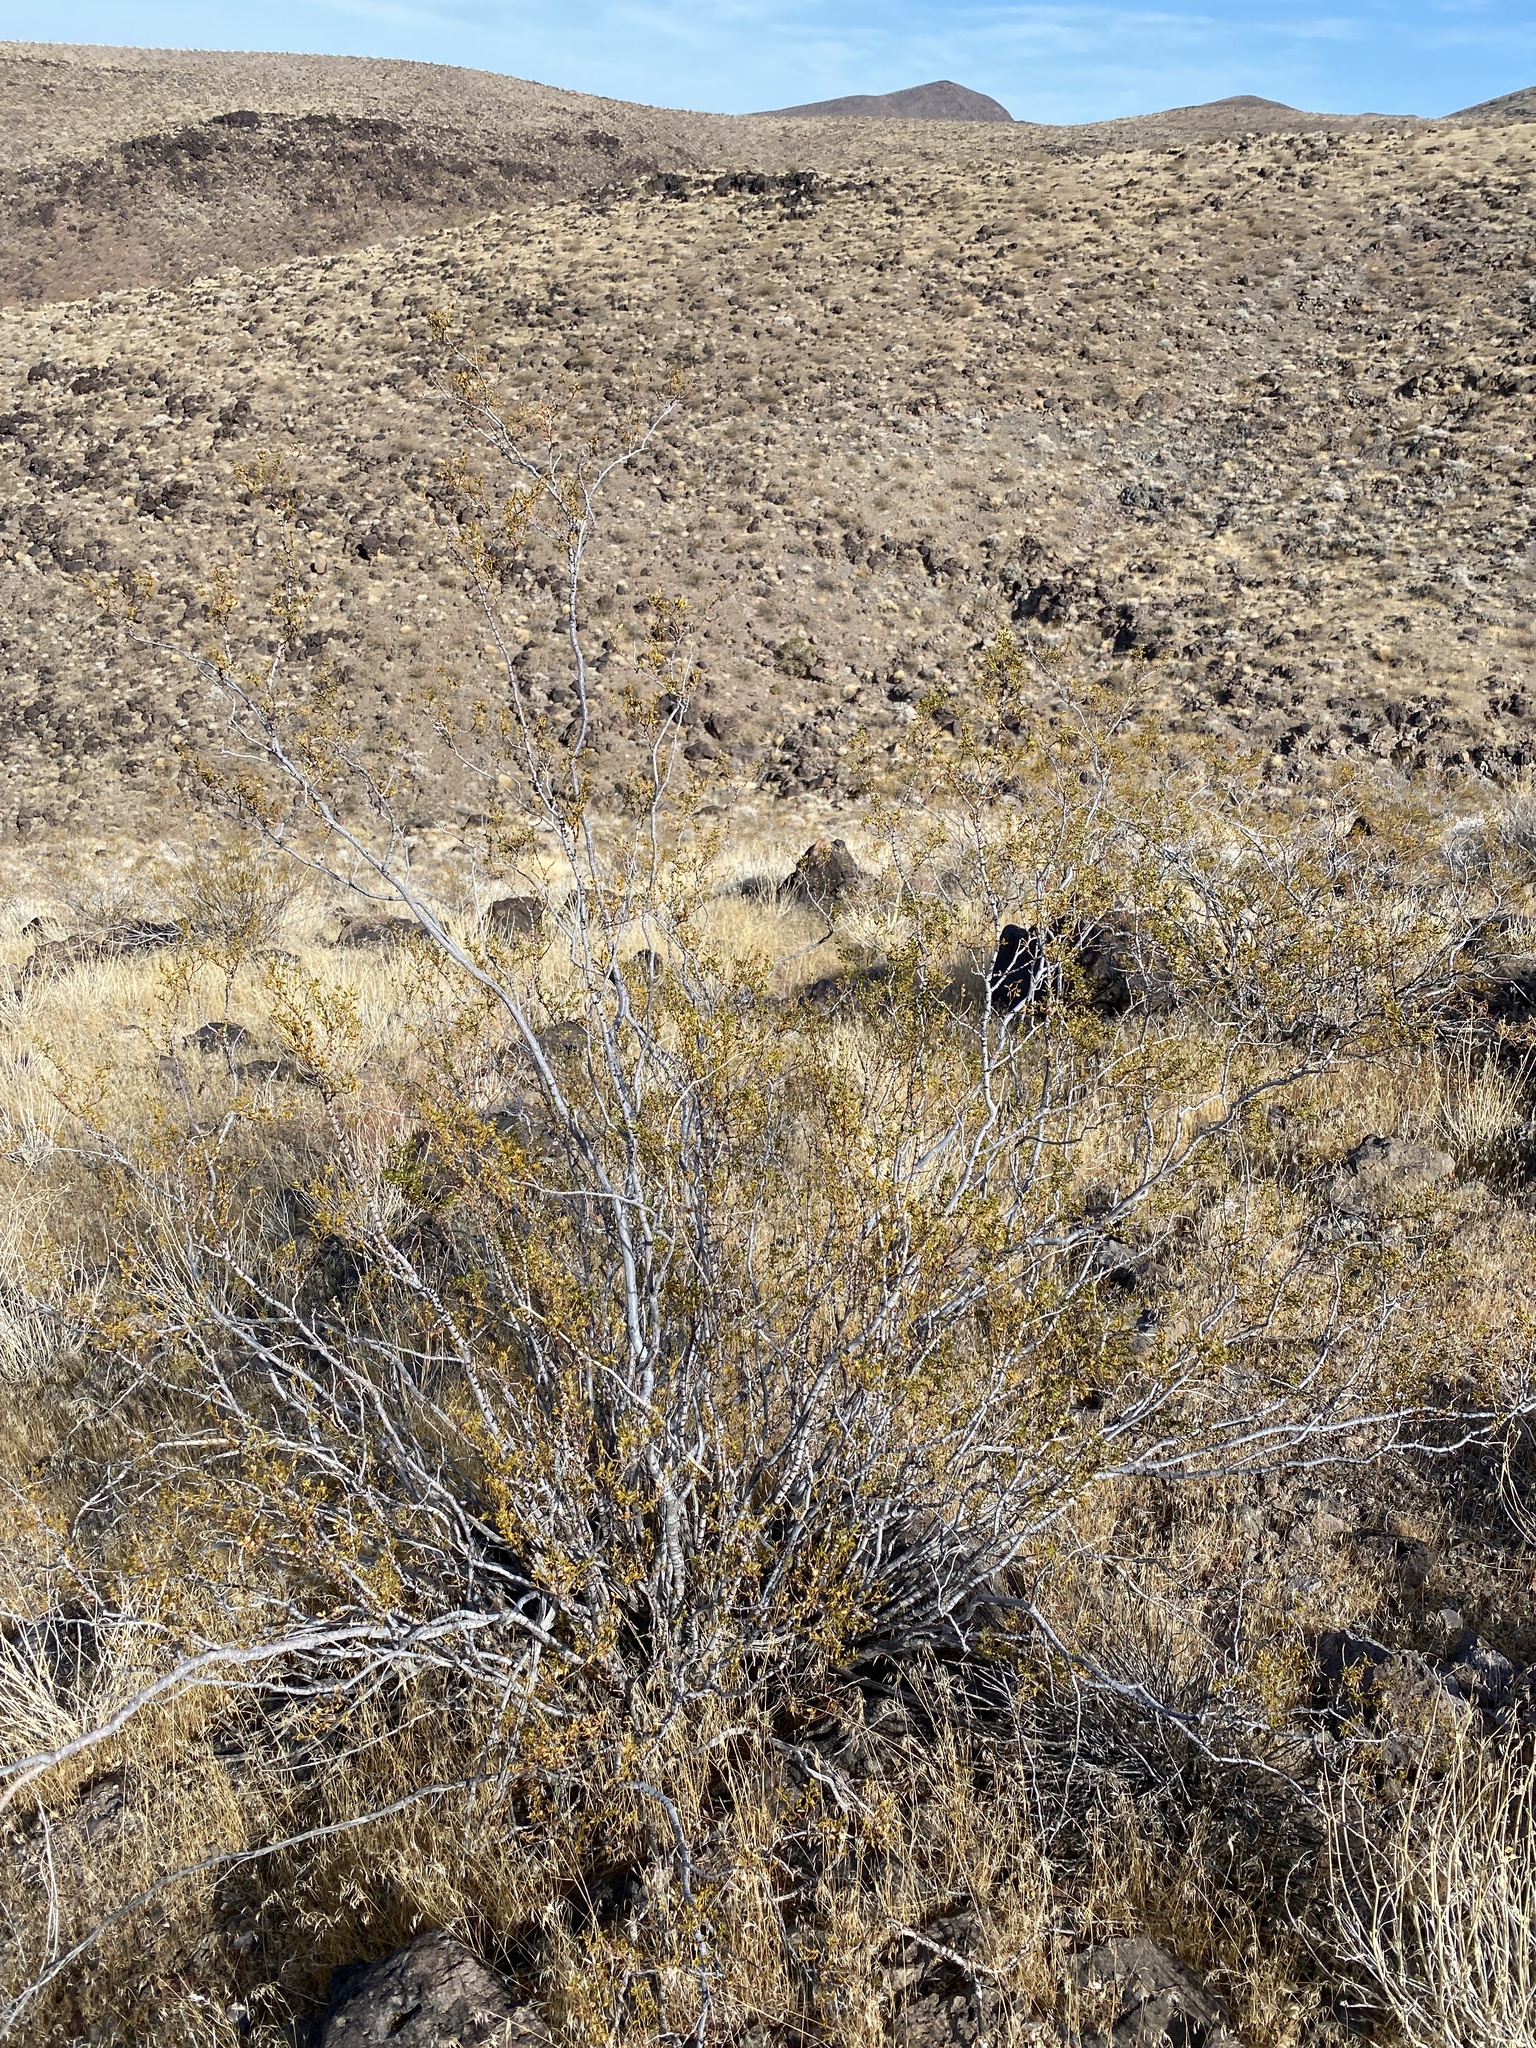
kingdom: Plantae
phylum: Tracheophyta
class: Magnoliopsida
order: Zygophyllales
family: Zygophyllaceae
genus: Larrea
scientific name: Larrea tridentata
